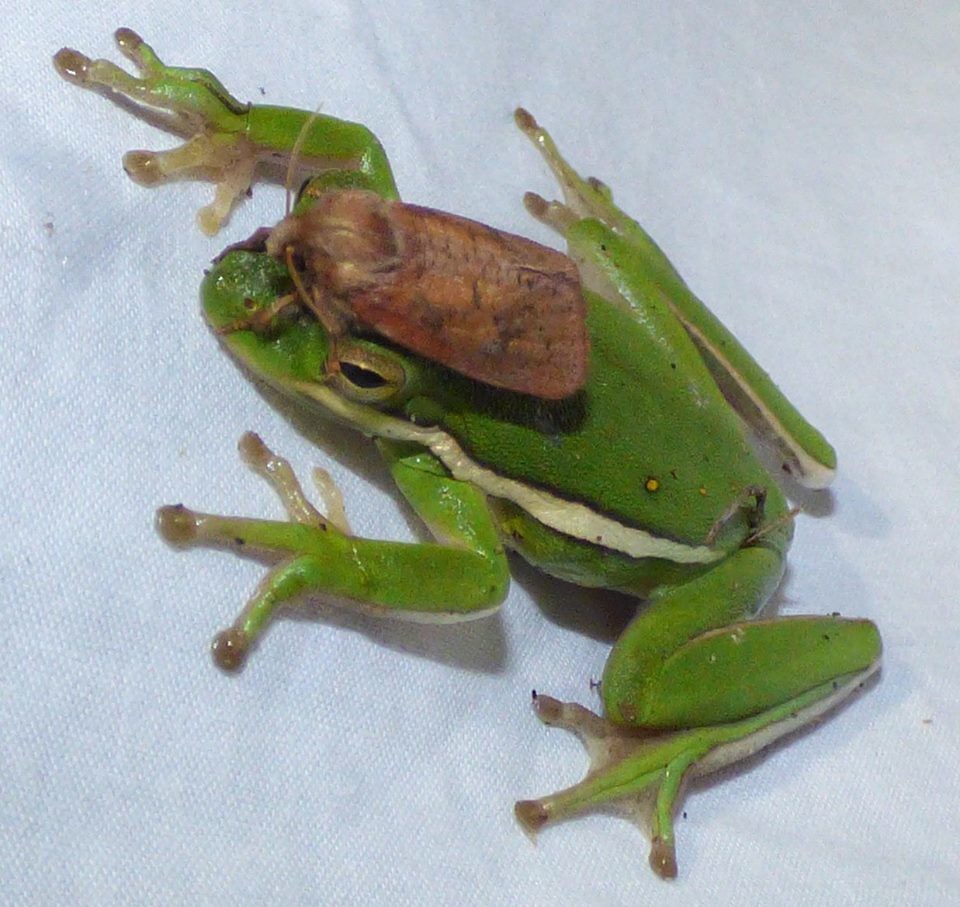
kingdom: Animalia
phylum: Chordata
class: Amphibia
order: Anura
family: Hylidae
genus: Dryophytes
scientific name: Dryophytes cinereus
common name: Green treefrog
